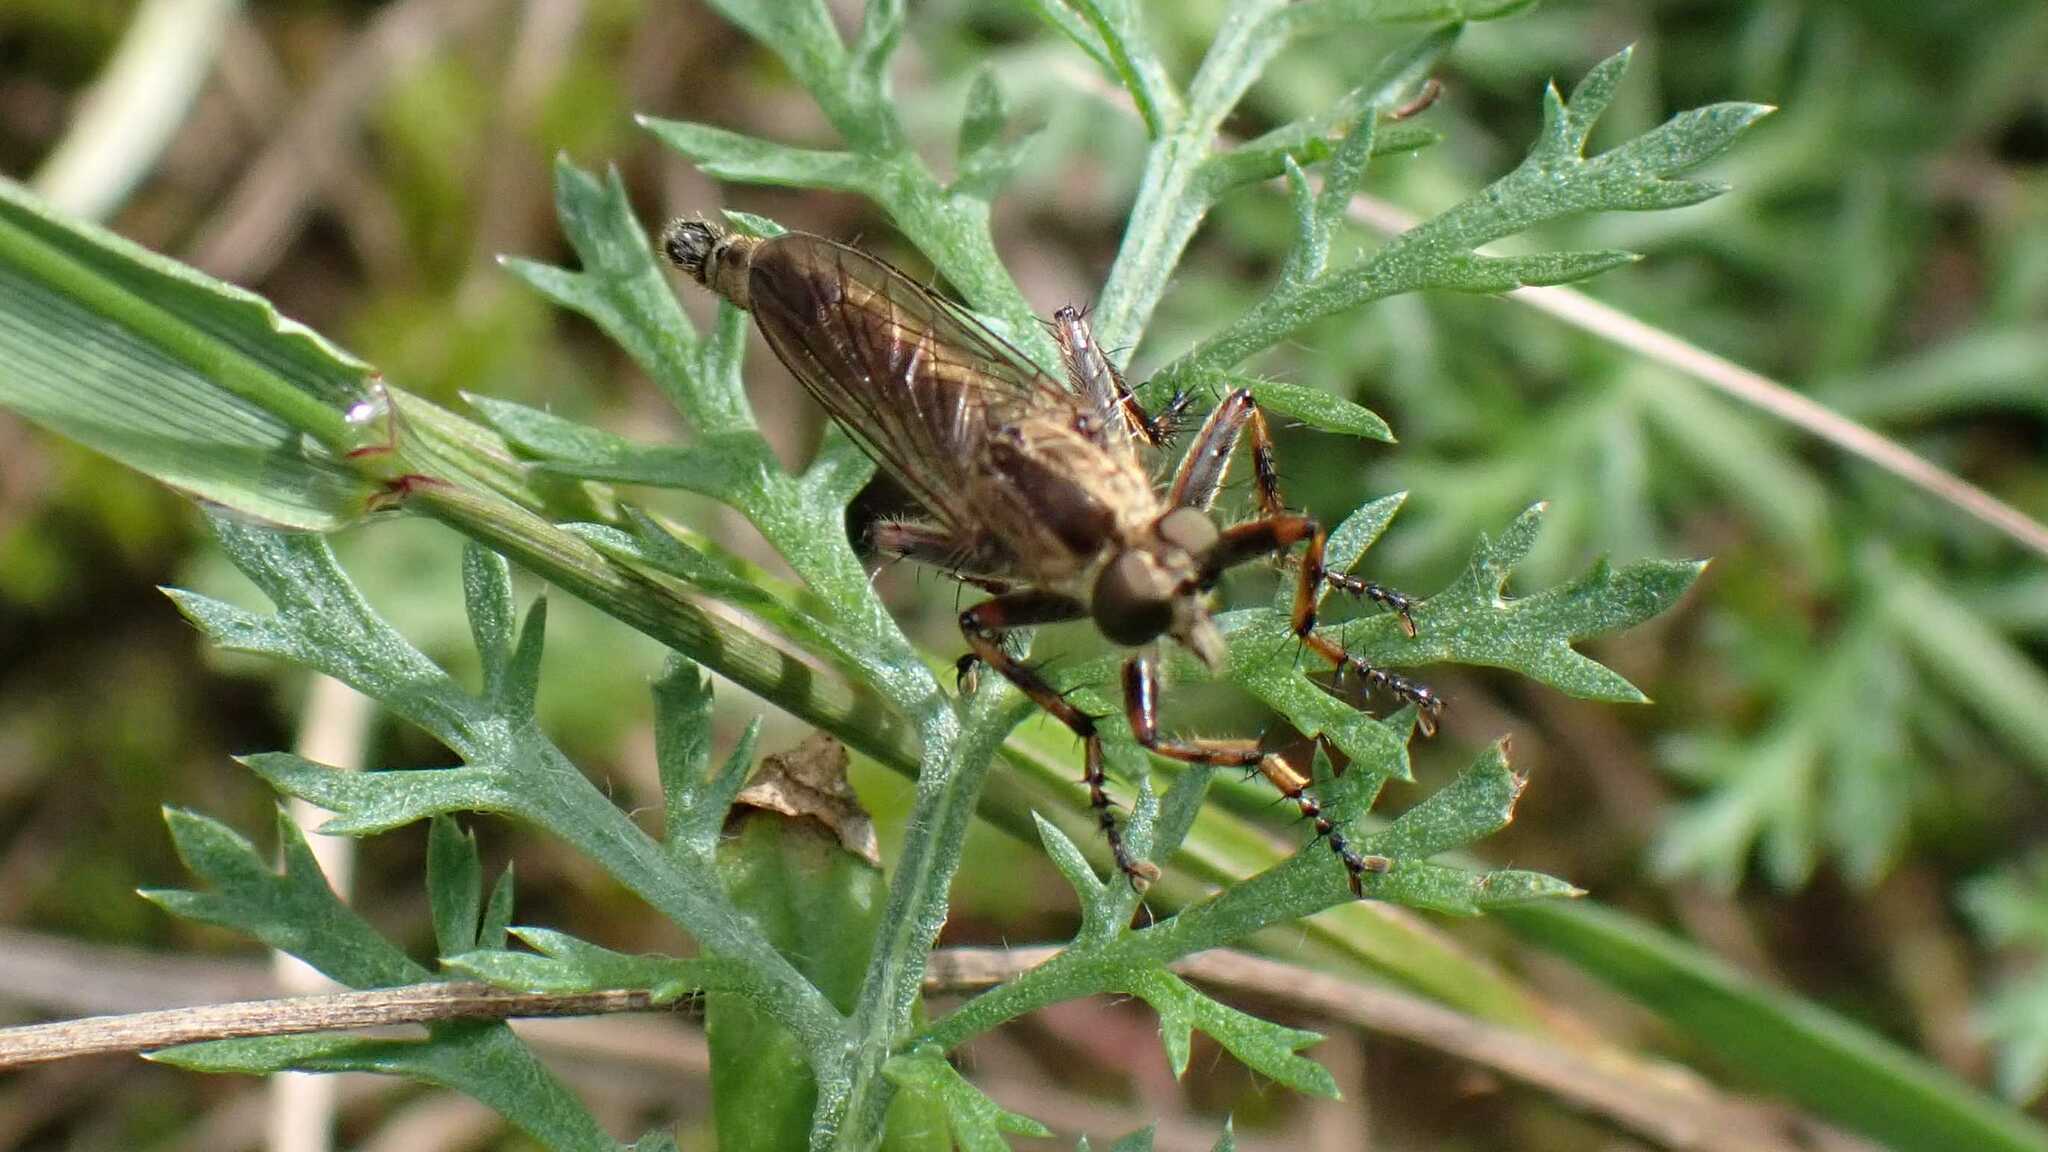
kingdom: Animalia
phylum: Arthropoda
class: Insecta
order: Diptera
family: Asilidae
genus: Epitriptus
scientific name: Epitriptus cingulatus
